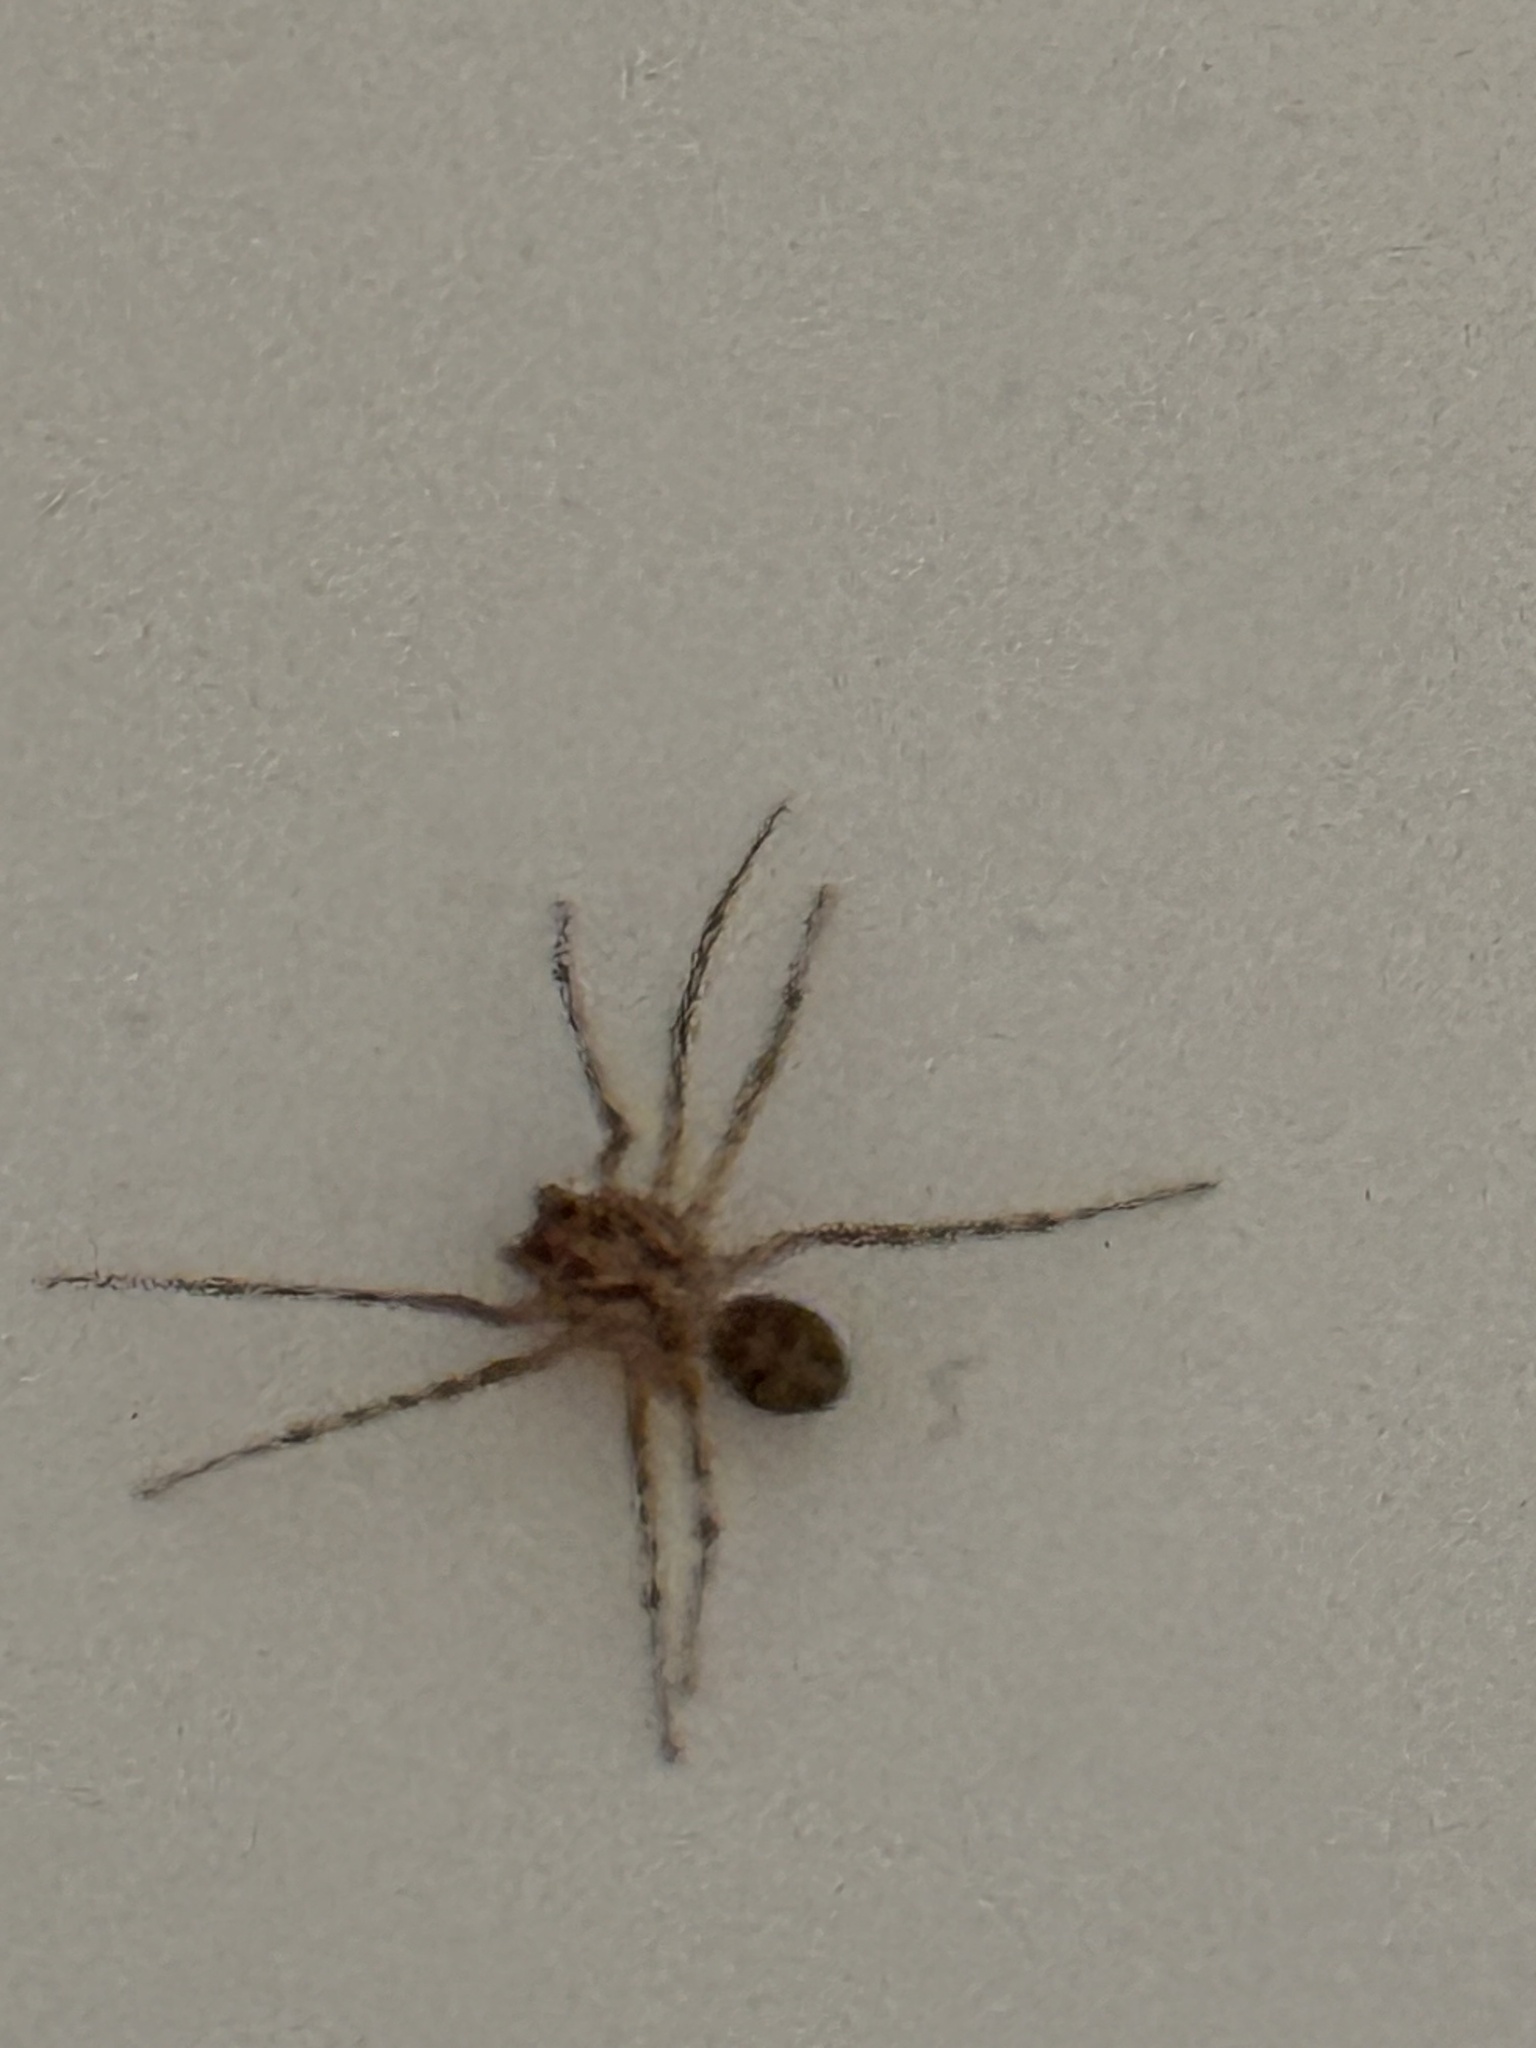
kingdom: Animalia
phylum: Arthropoda
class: Arachnida
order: Araneae
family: Scytodidae
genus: Scytodes
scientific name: Scytodes thoracica
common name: Spitting spider
